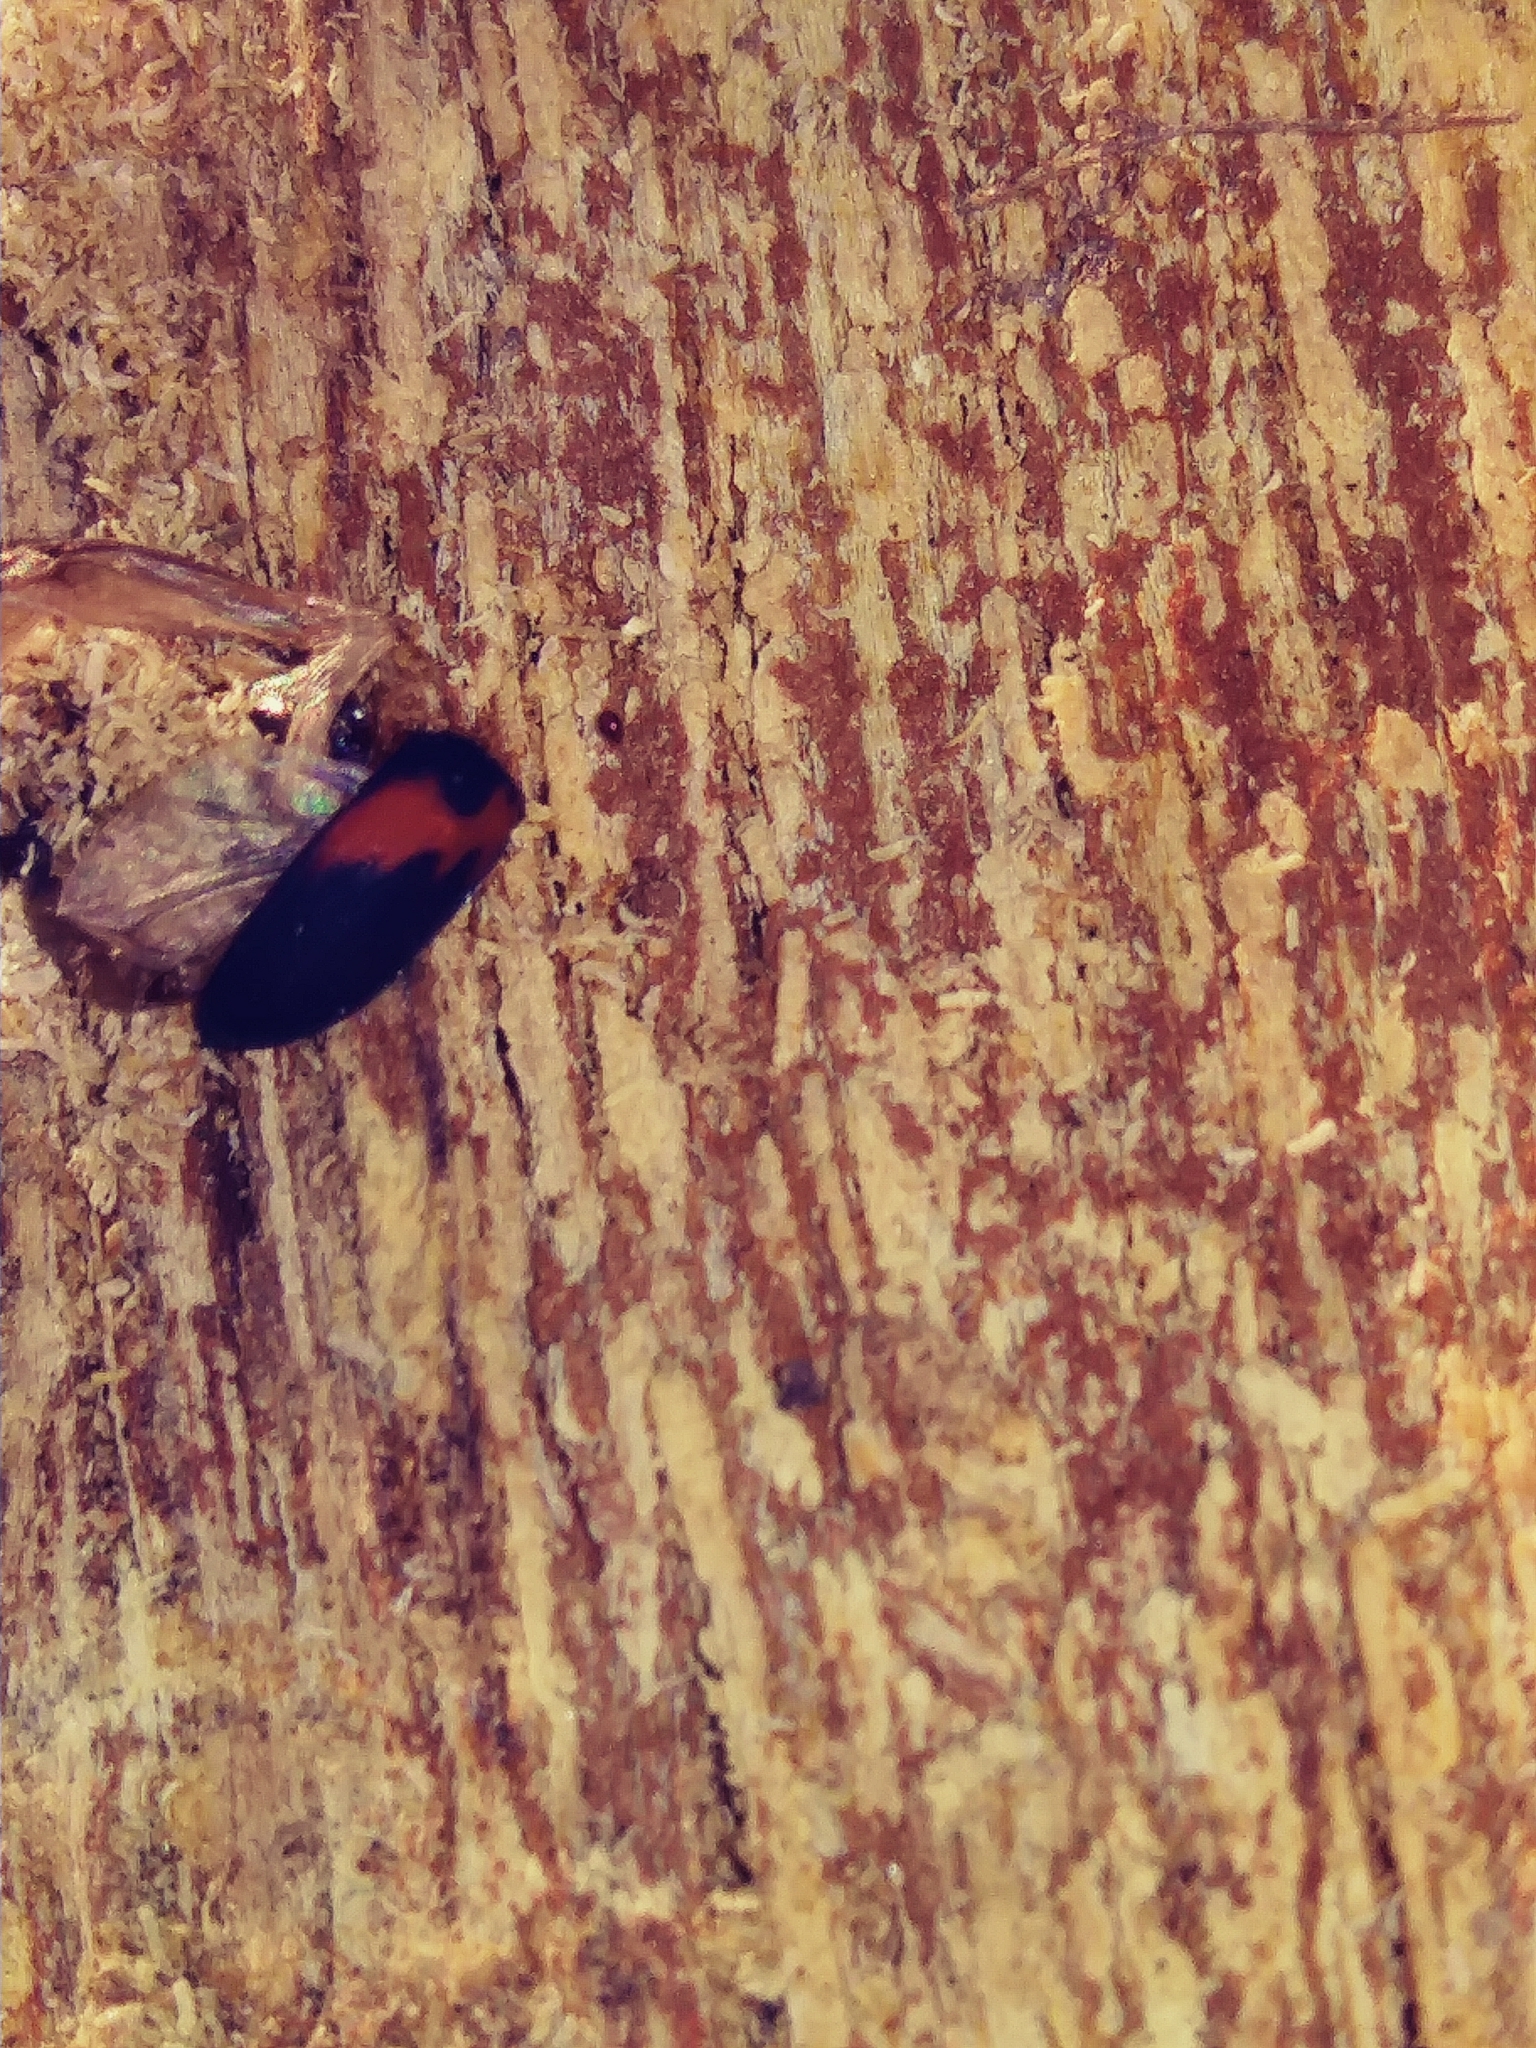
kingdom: Animalia
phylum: Arthropoda
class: Insecta
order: Coleoptera
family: Tenebrionidae
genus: Platydema
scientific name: Platydema elliptica
